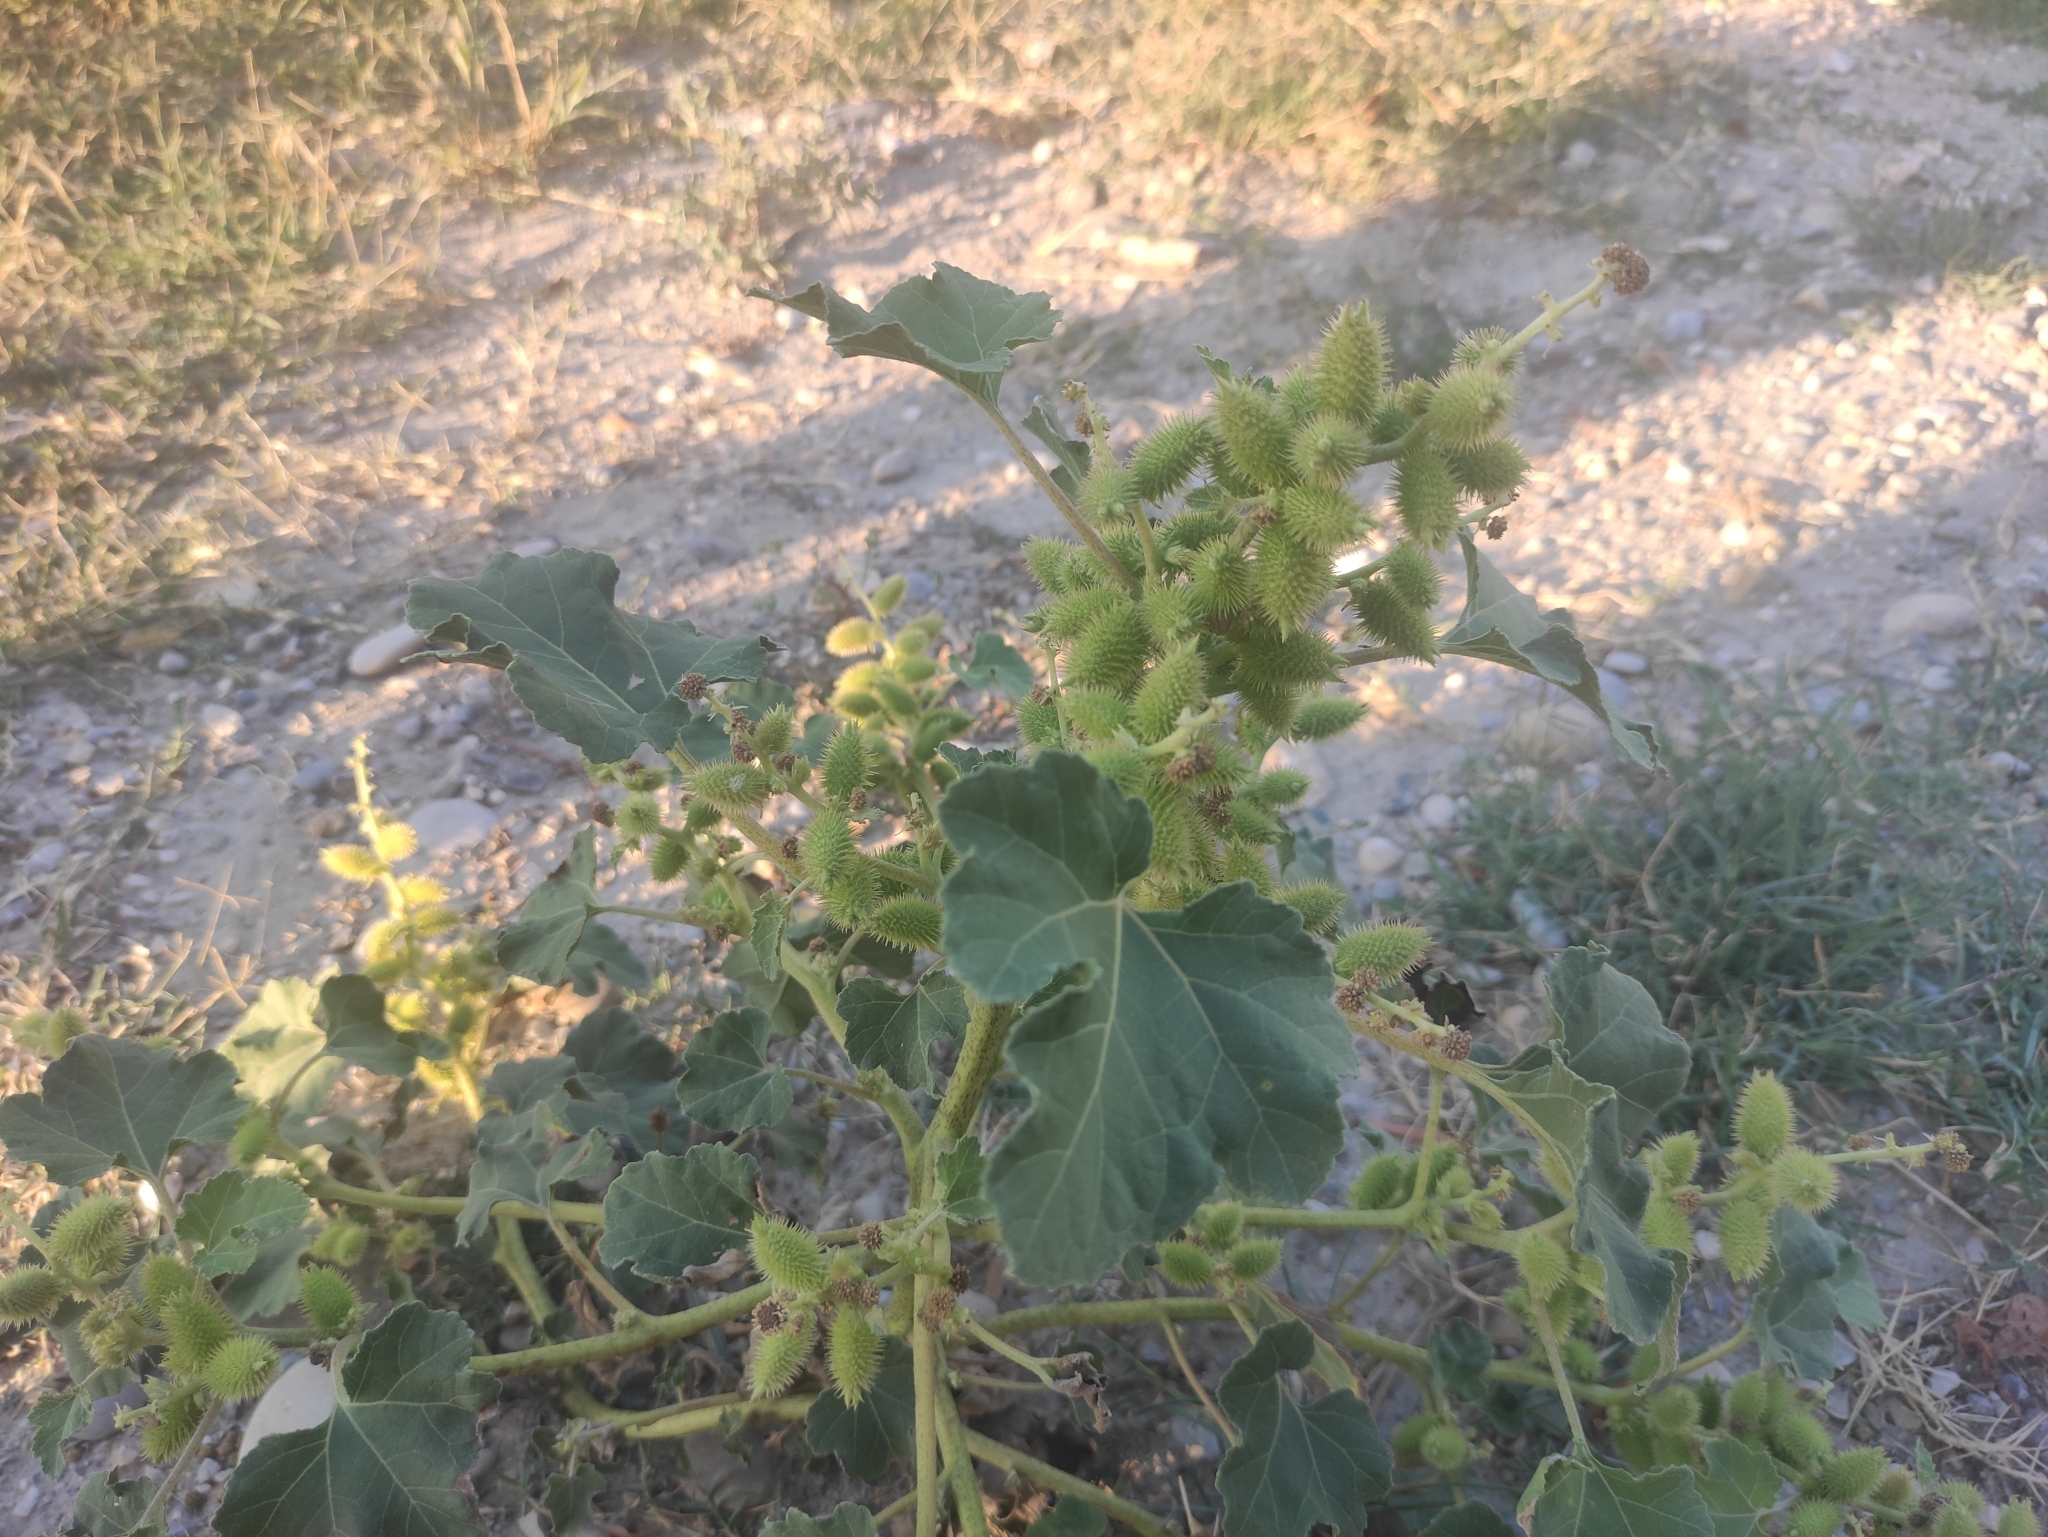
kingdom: Plantae
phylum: Tracheophyta
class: Magnoliopsida
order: Asterales
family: Asteraceae
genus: Xanthium
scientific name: Xanthium strumarium
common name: Rough cocklebur
